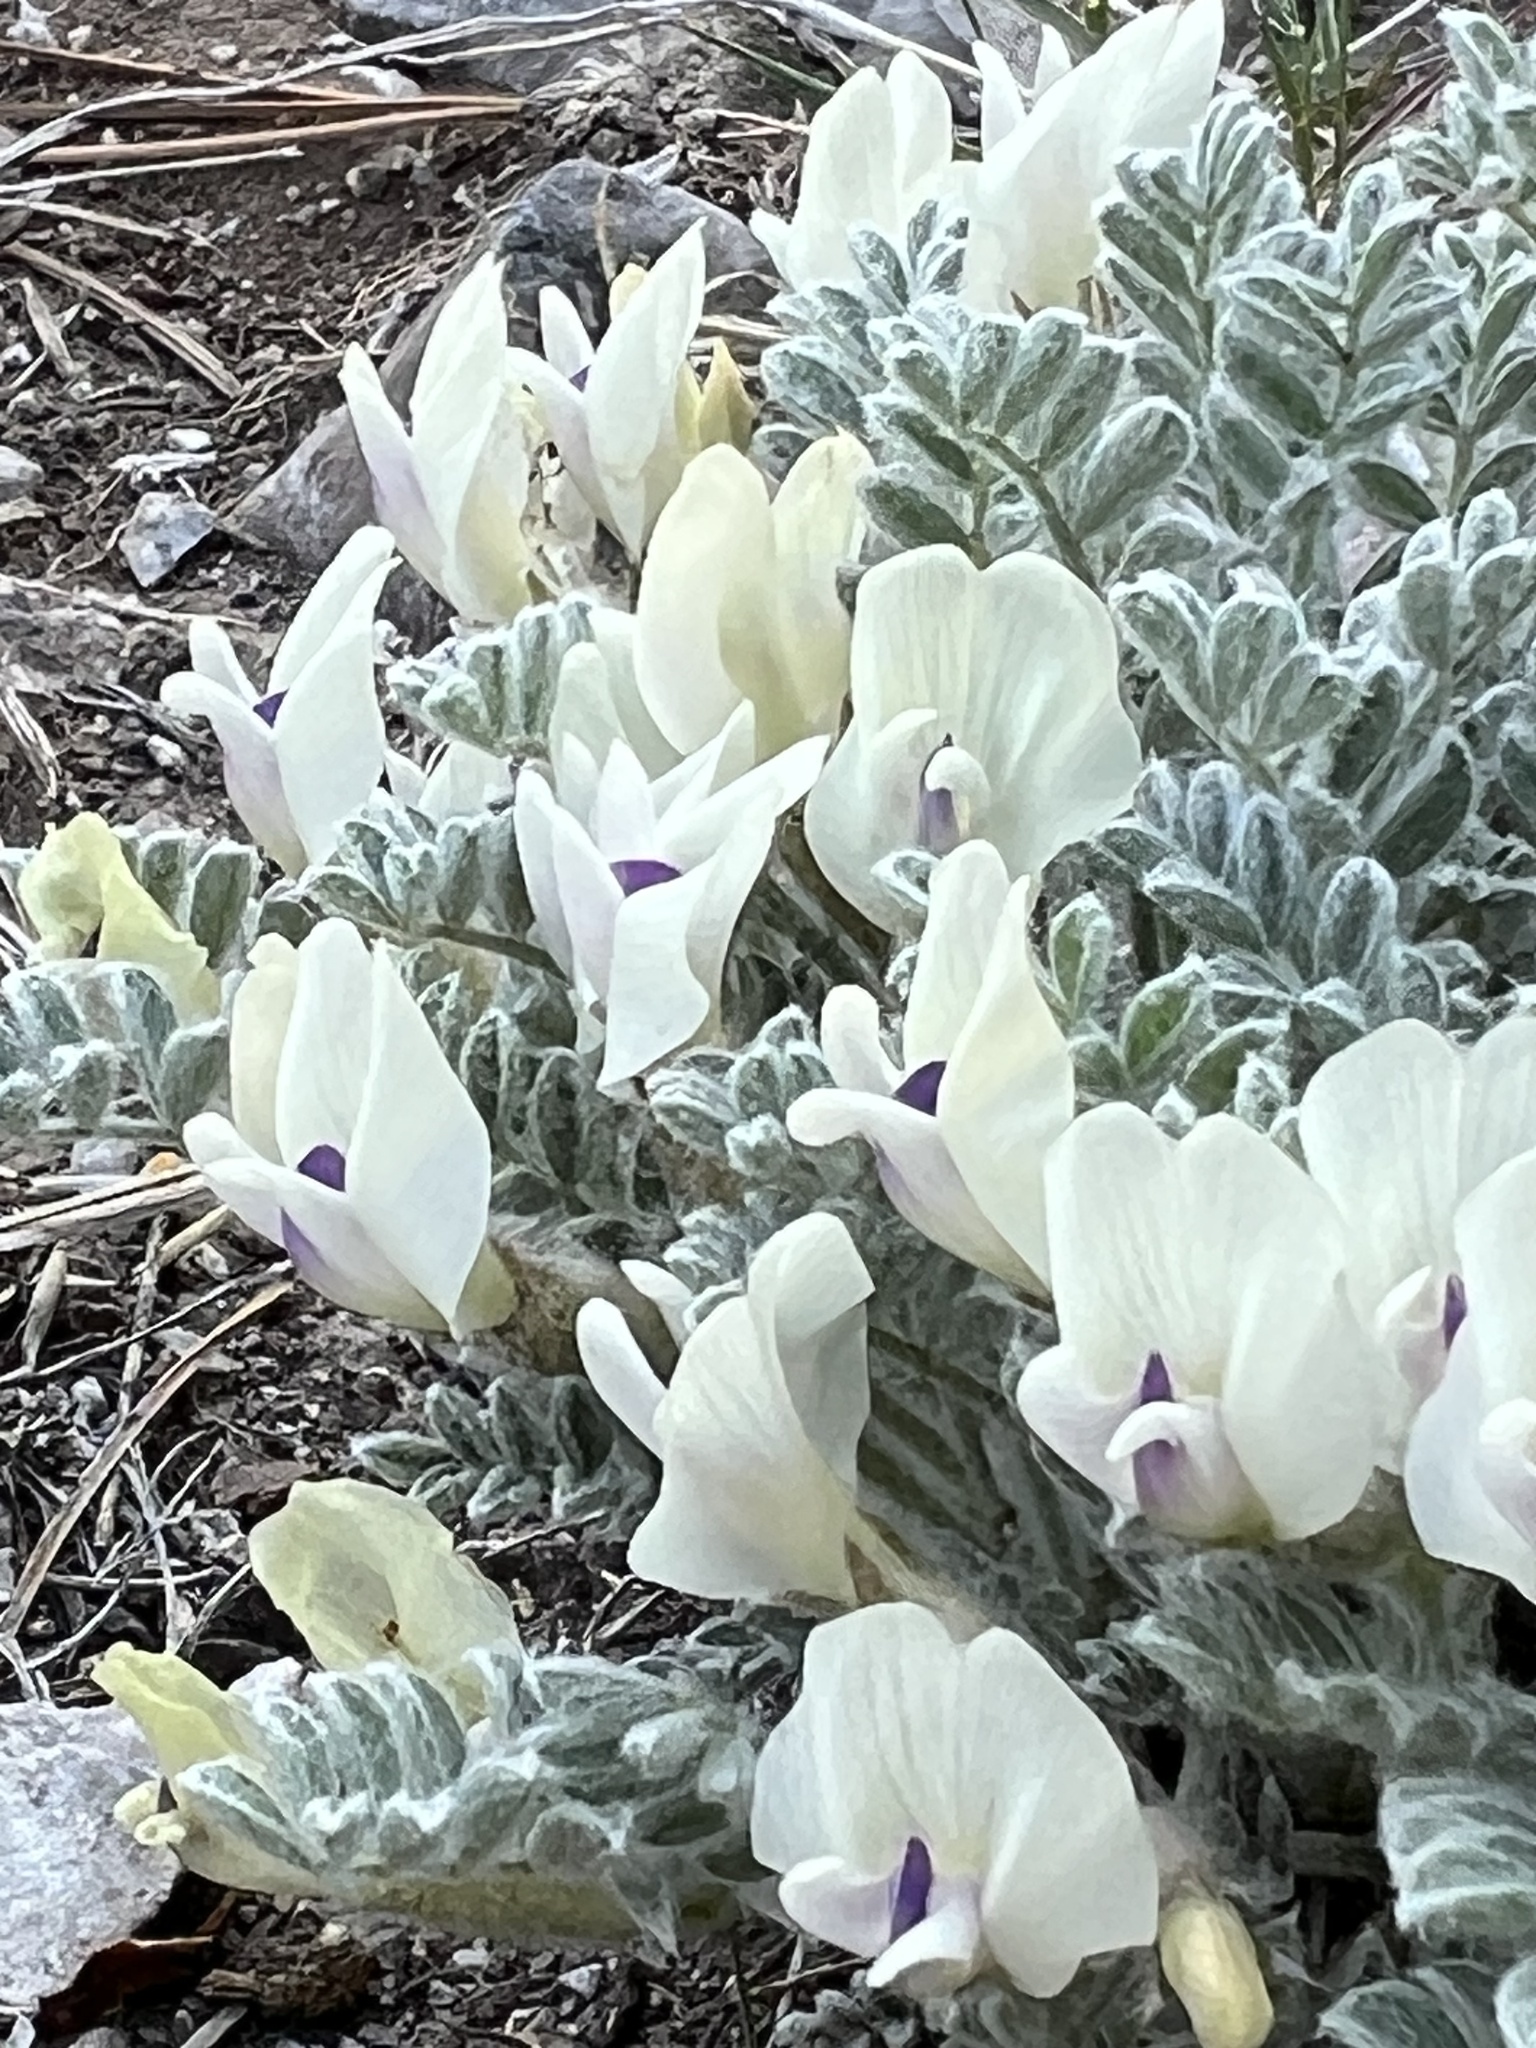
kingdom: Plantae
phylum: Tracheophyta
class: Magnoliopsida
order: Fabales
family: Fabaceae
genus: Astragalus
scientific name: Astragalus purshii
